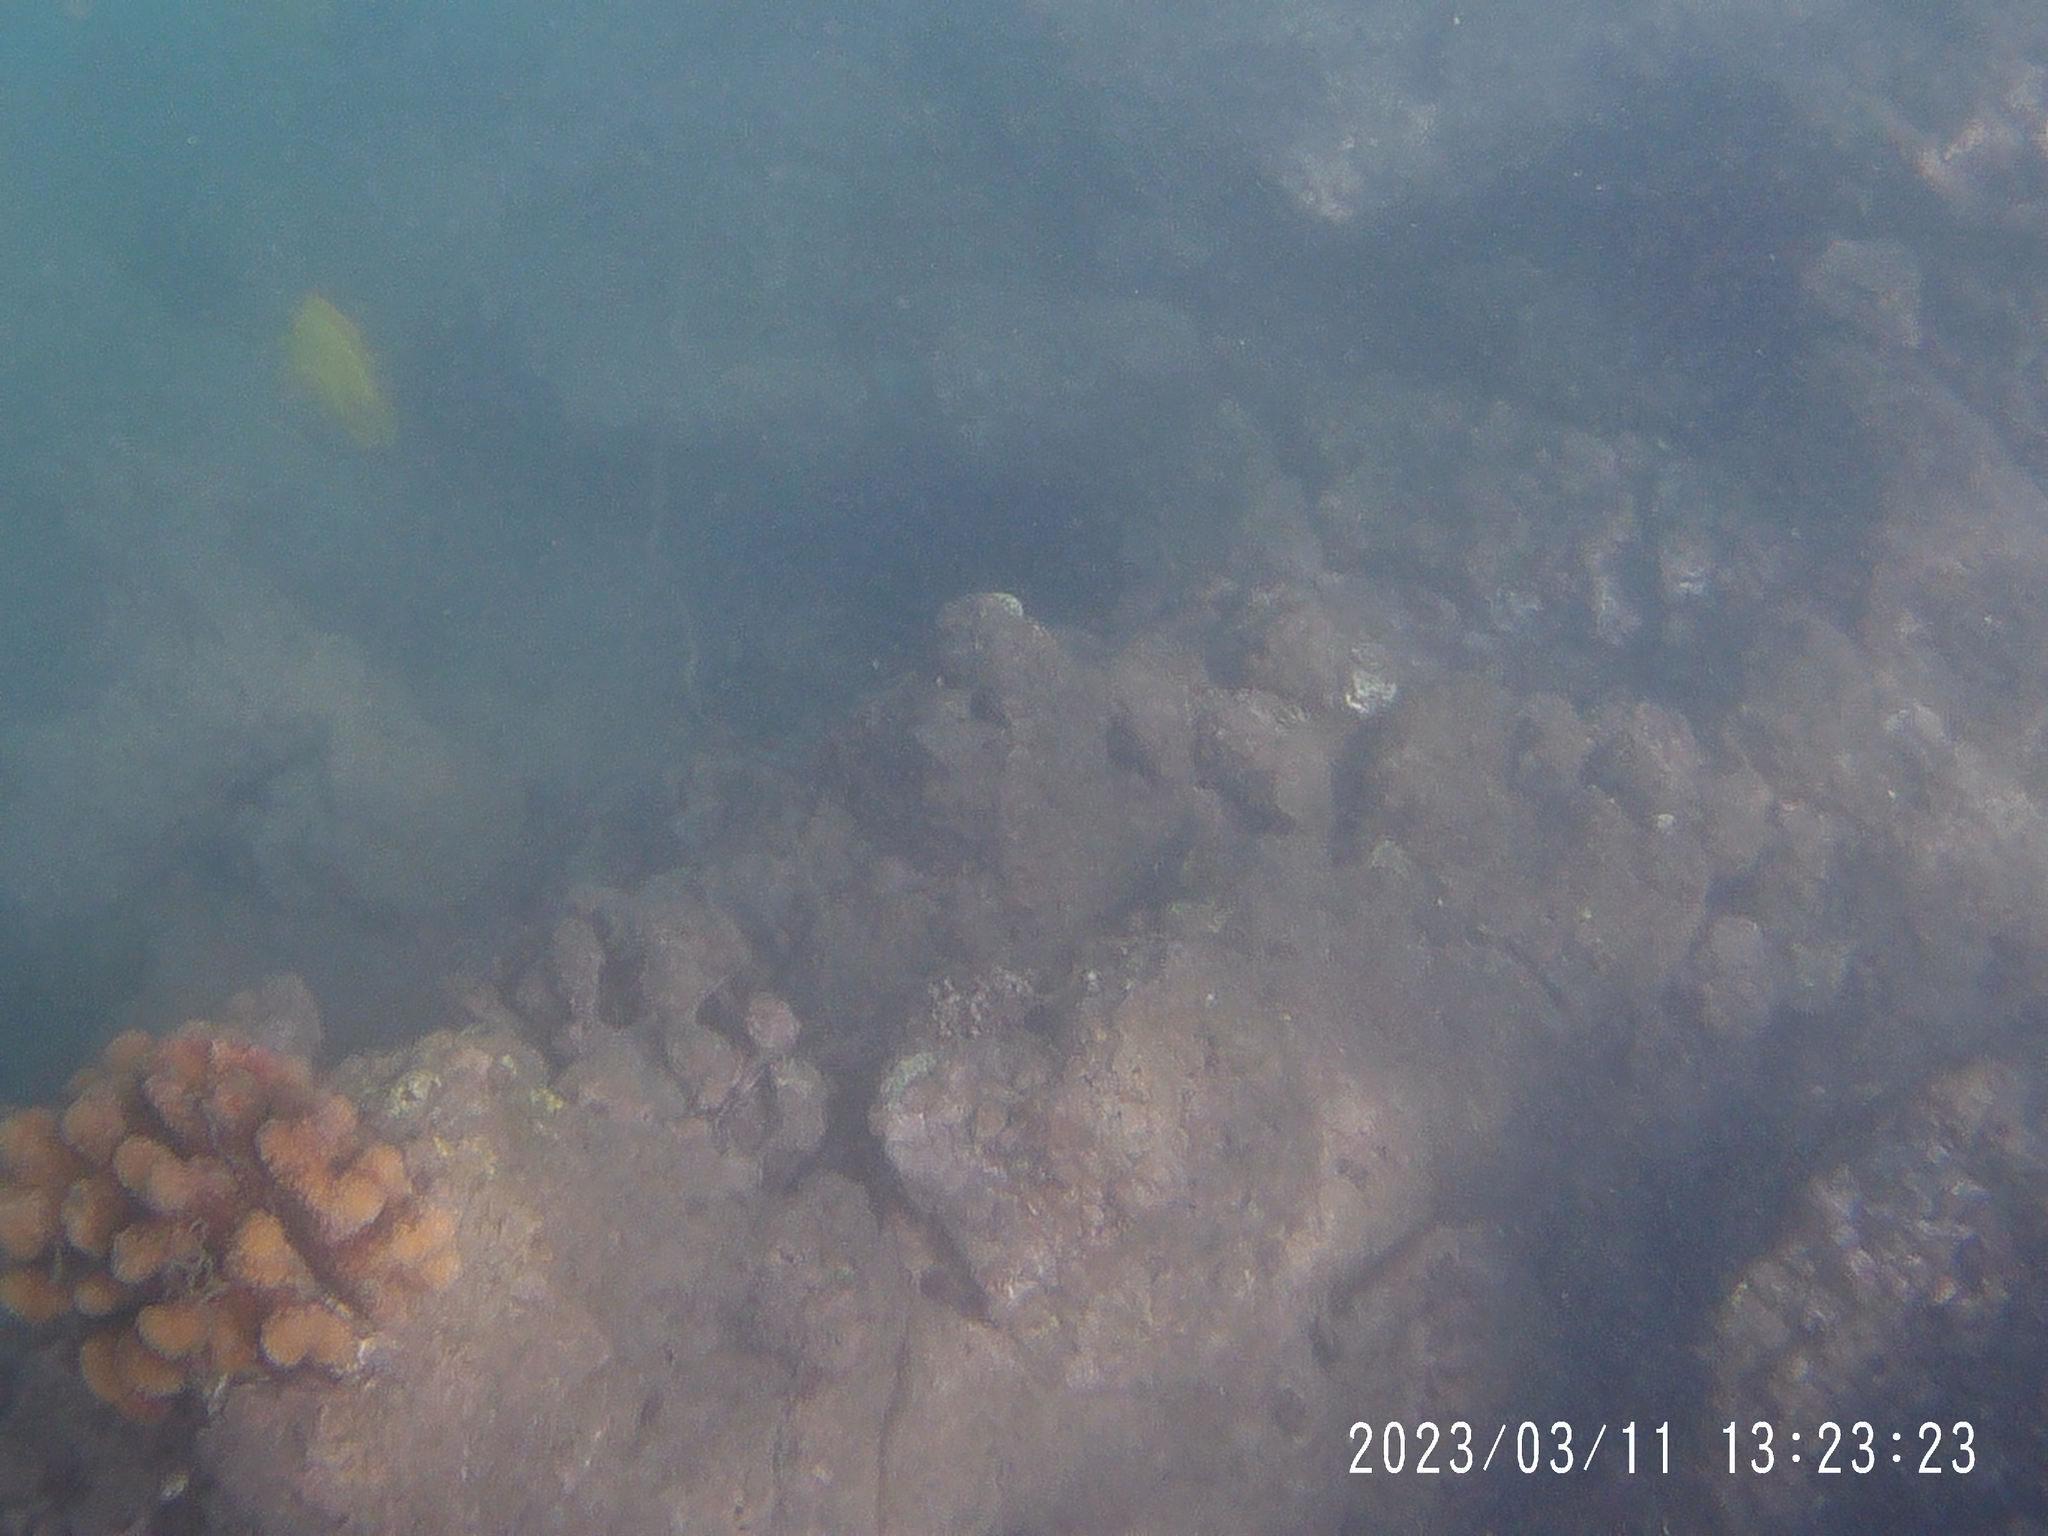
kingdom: Animalia
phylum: Chordata
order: Perciformes
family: Acanthuridae
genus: Zebrasoma
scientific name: Zebrasoma flavescens
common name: Yellow tang
